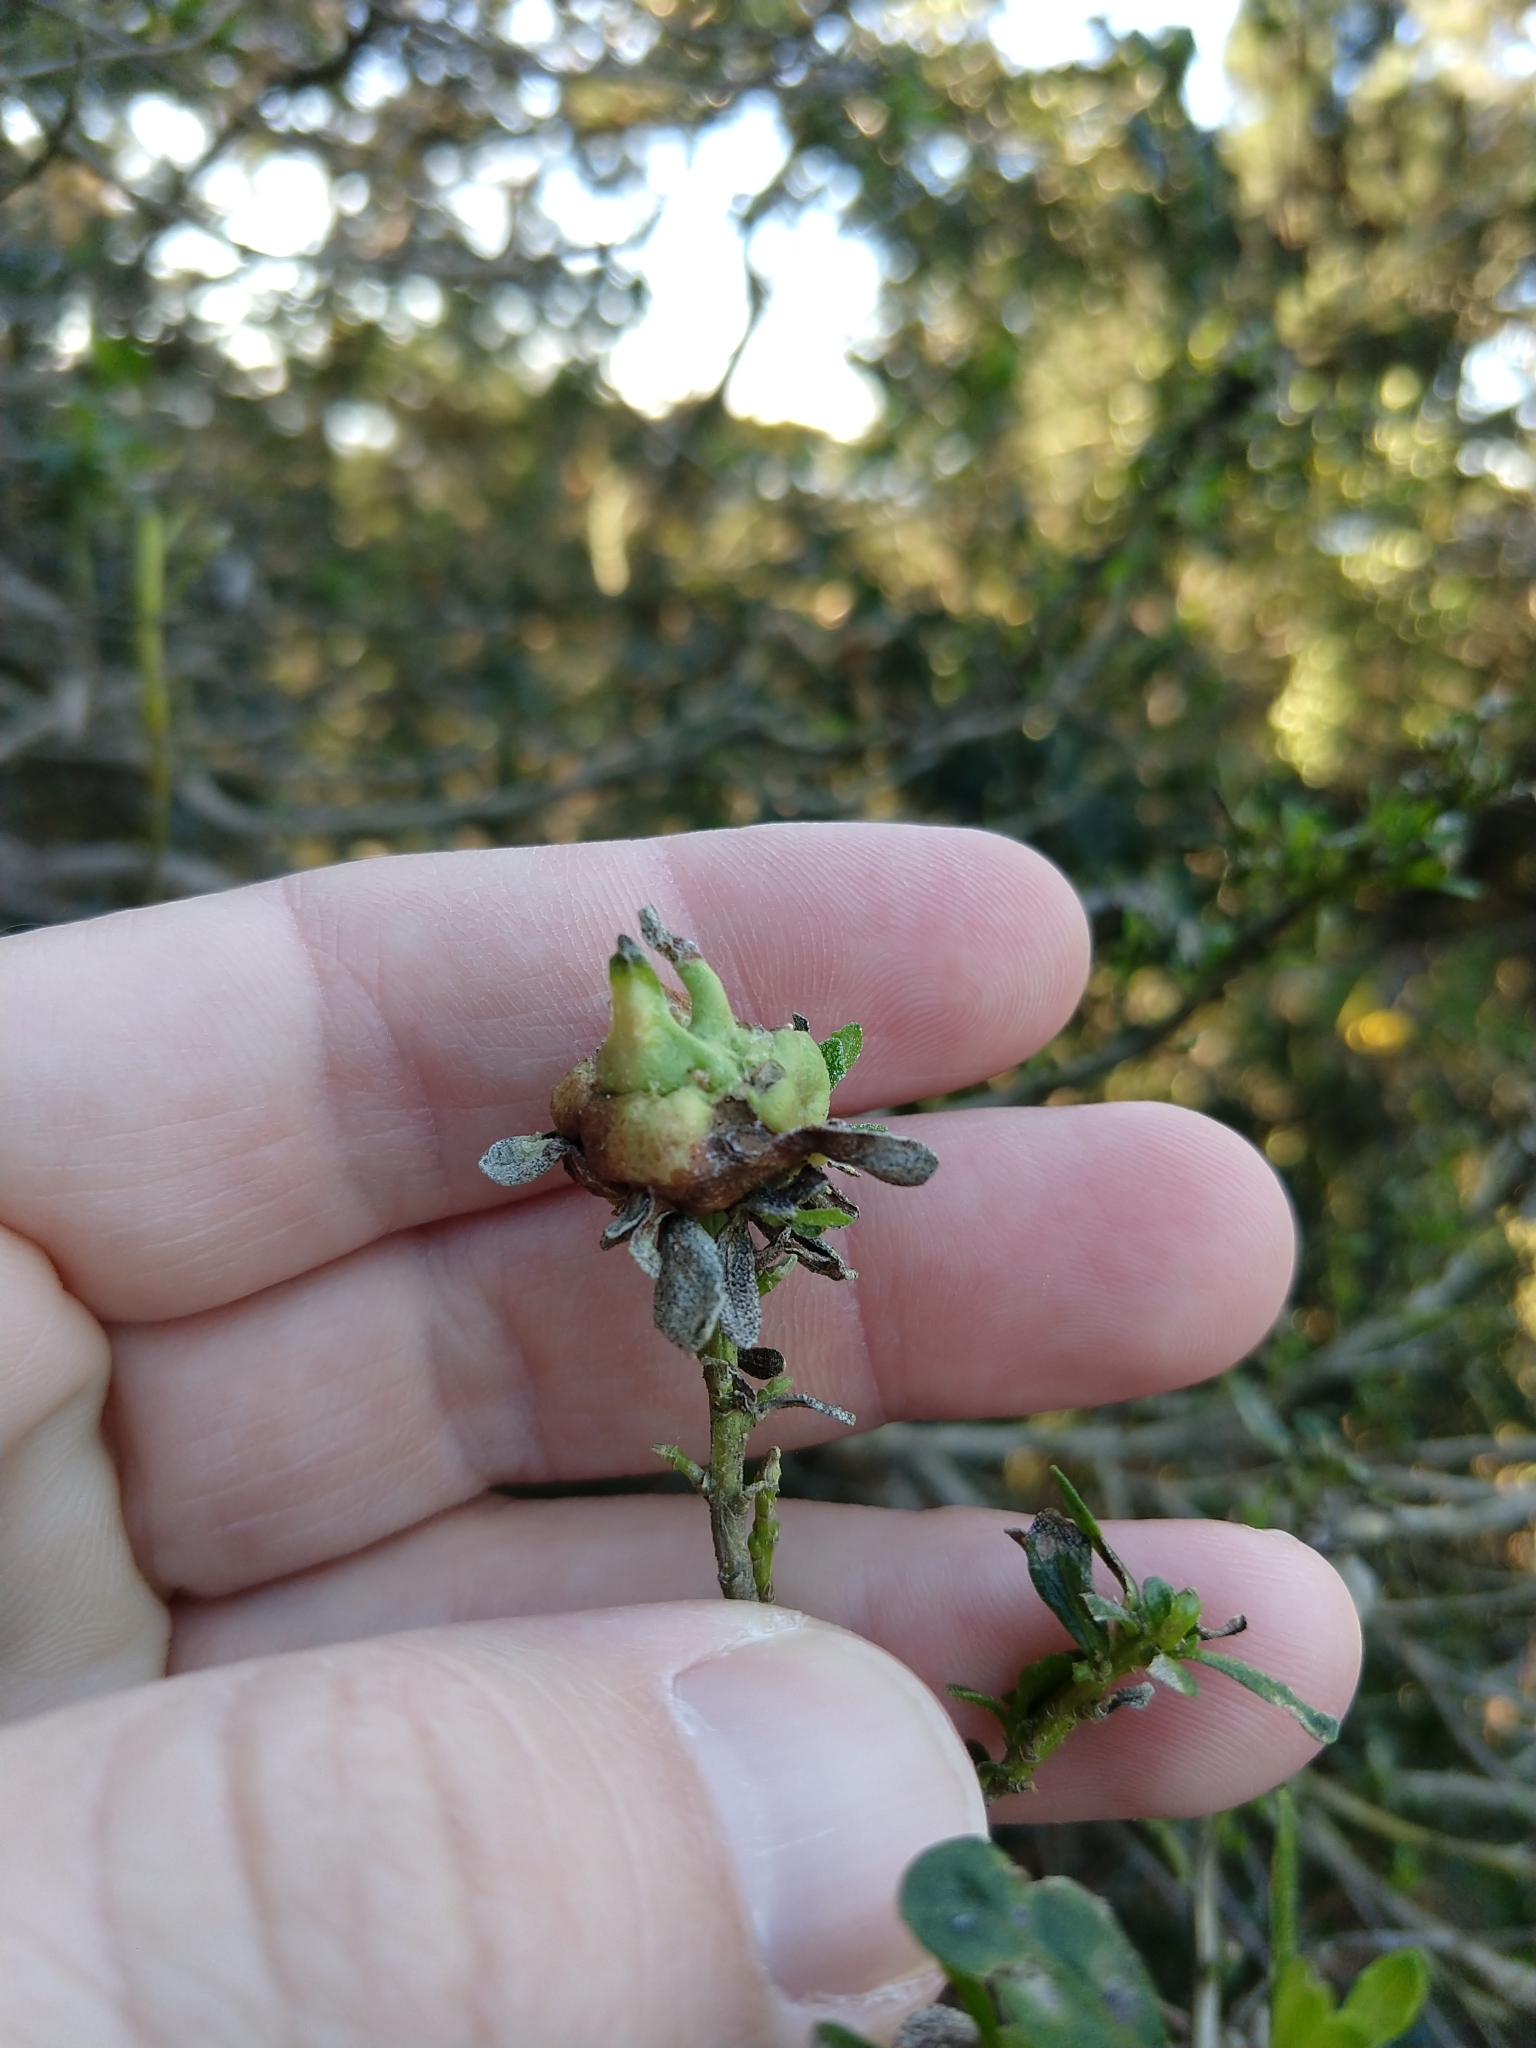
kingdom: Animalia
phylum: Arthropoda
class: Insecta
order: Diptera
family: Cecidomyiidae
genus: Rhopalomyia
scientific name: Rhopalomyia californica
